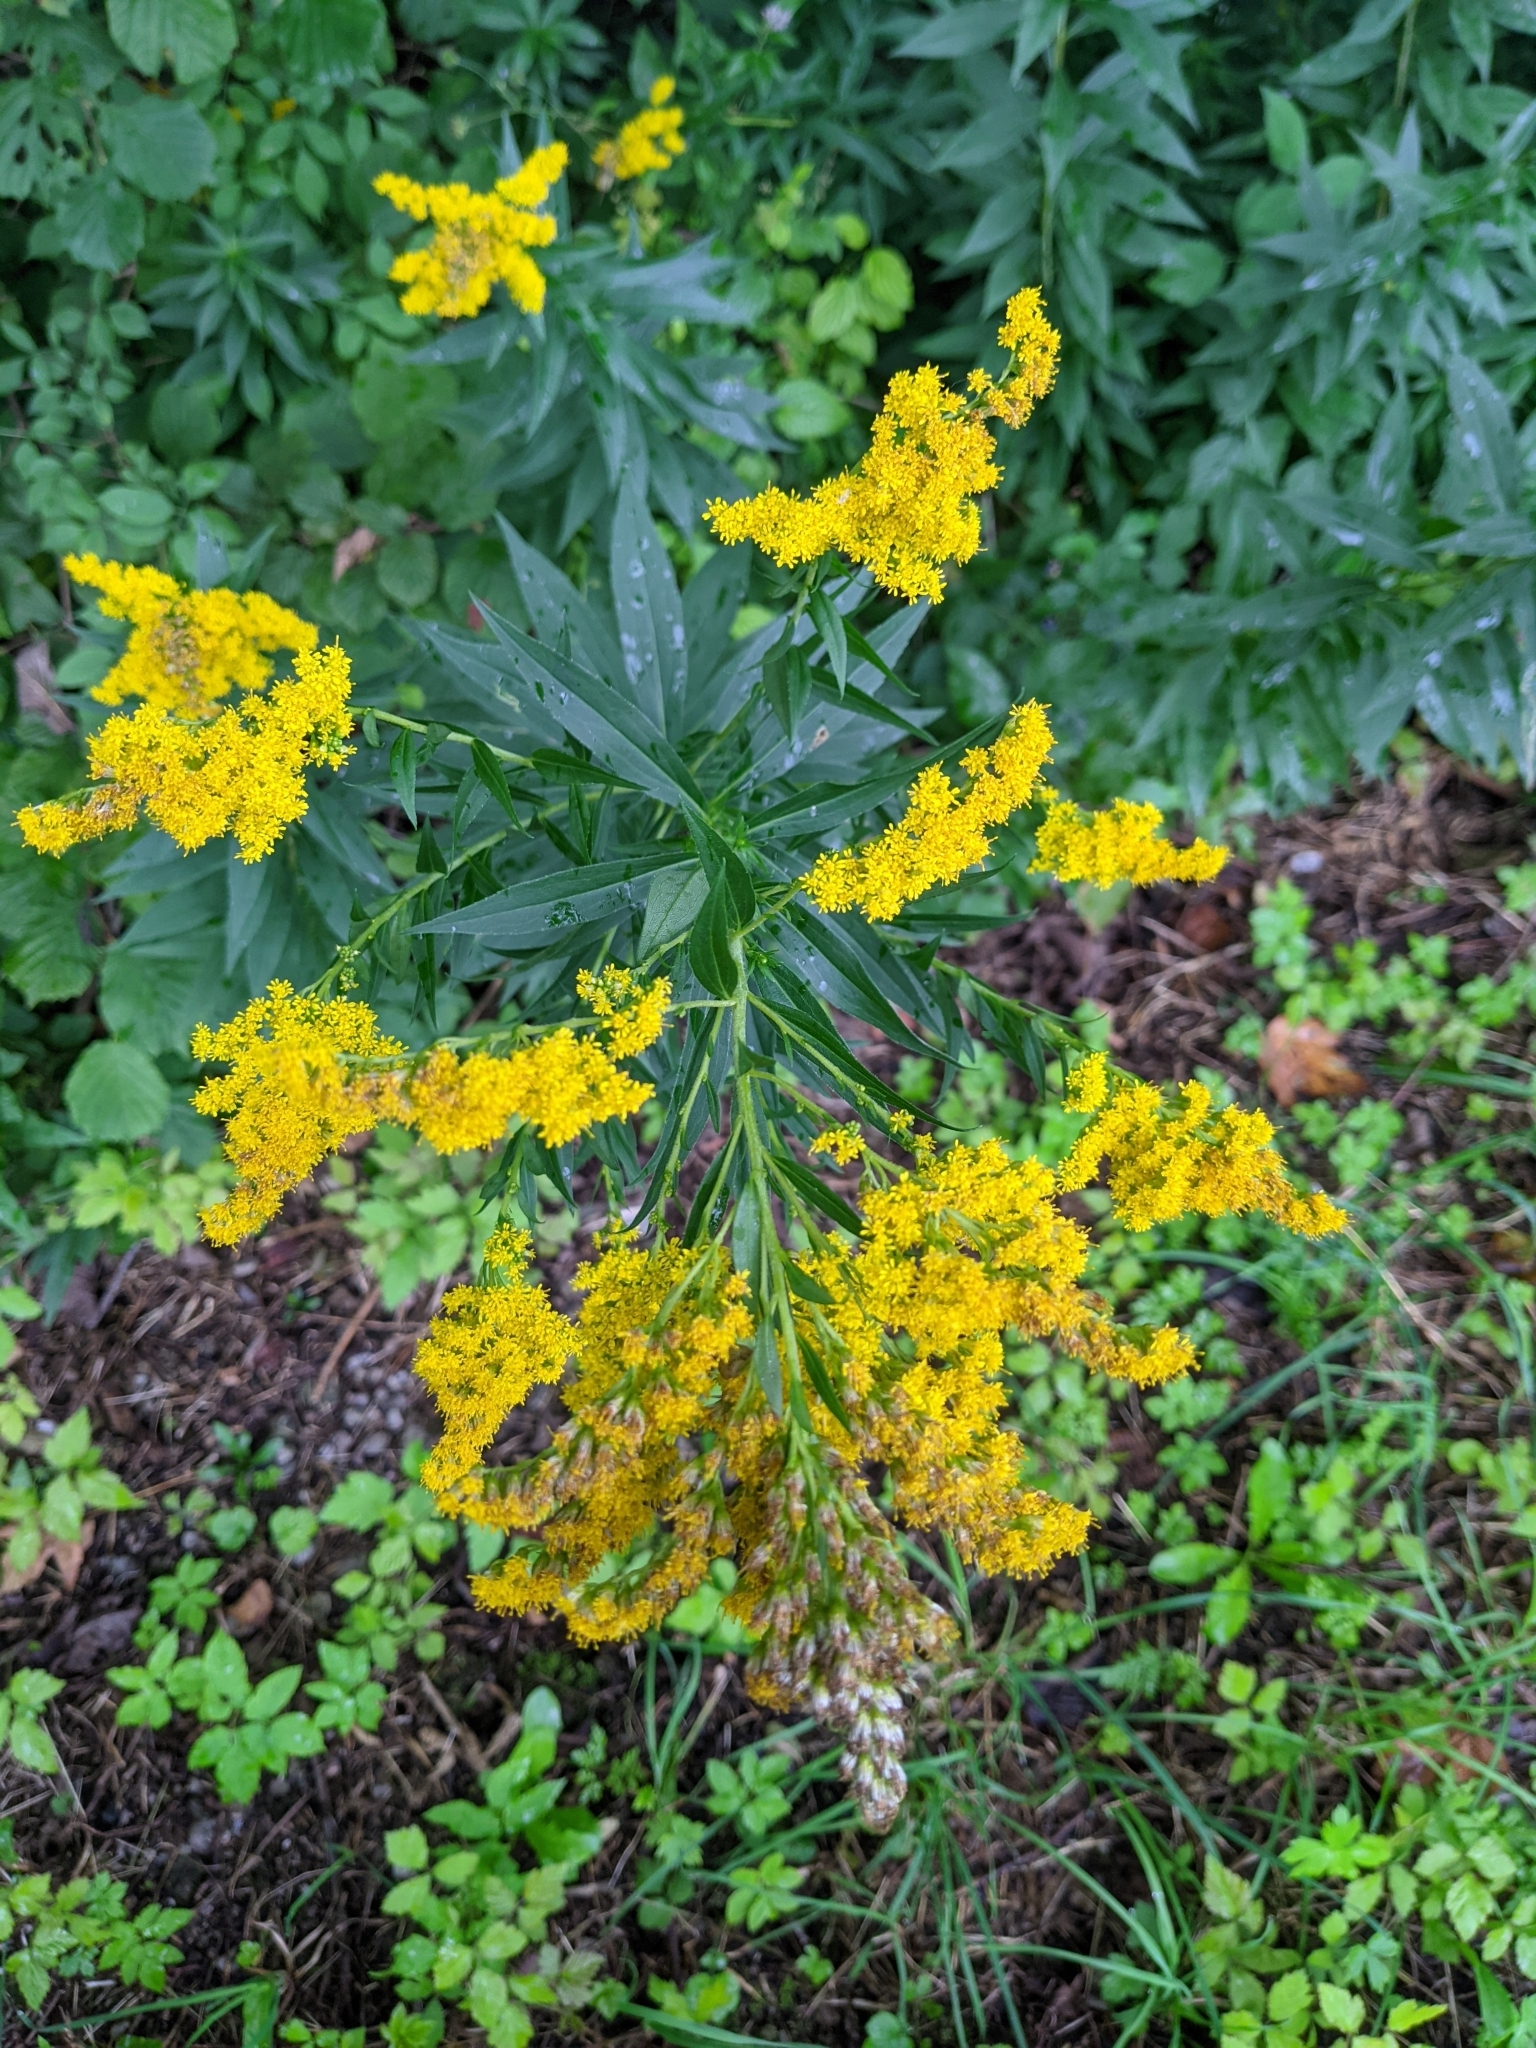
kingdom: Plantae
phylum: Tracheophyta
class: Magnoliopsida
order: Asterales
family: Asteraceae
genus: Solidago
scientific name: Solidago canadensis
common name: Canada goldenrod
